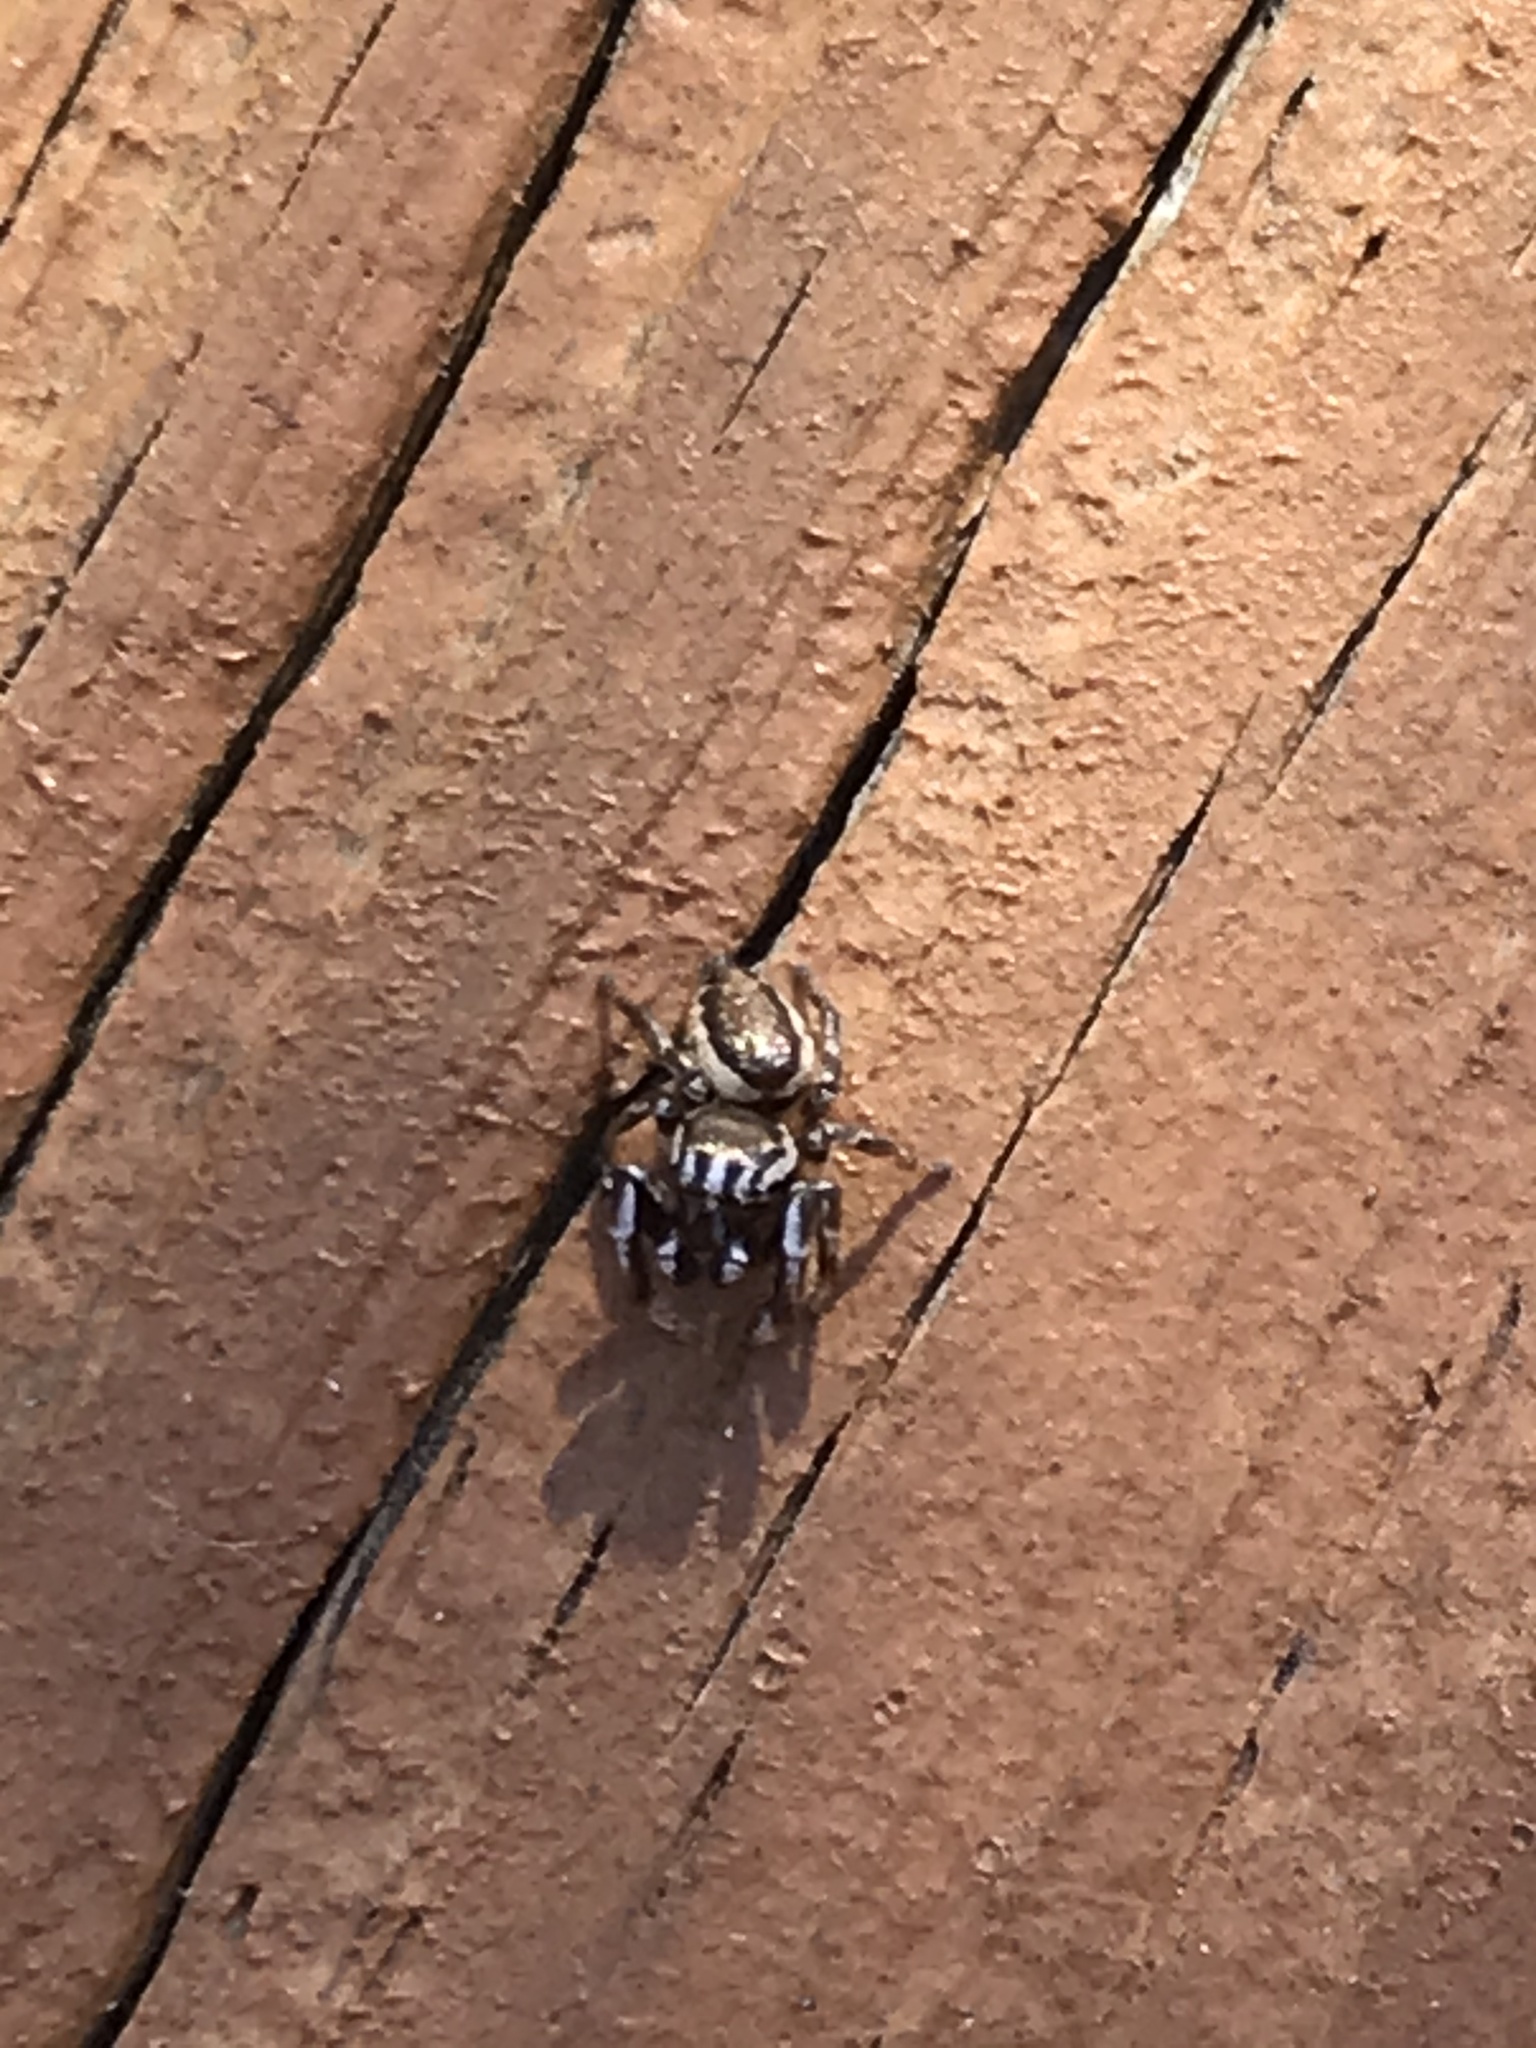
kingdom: Animalia
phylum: Arthropoda
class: Arachnida
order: Araneae
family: Salticidae
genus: Pelegrina
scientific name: Pelegrina exigua
